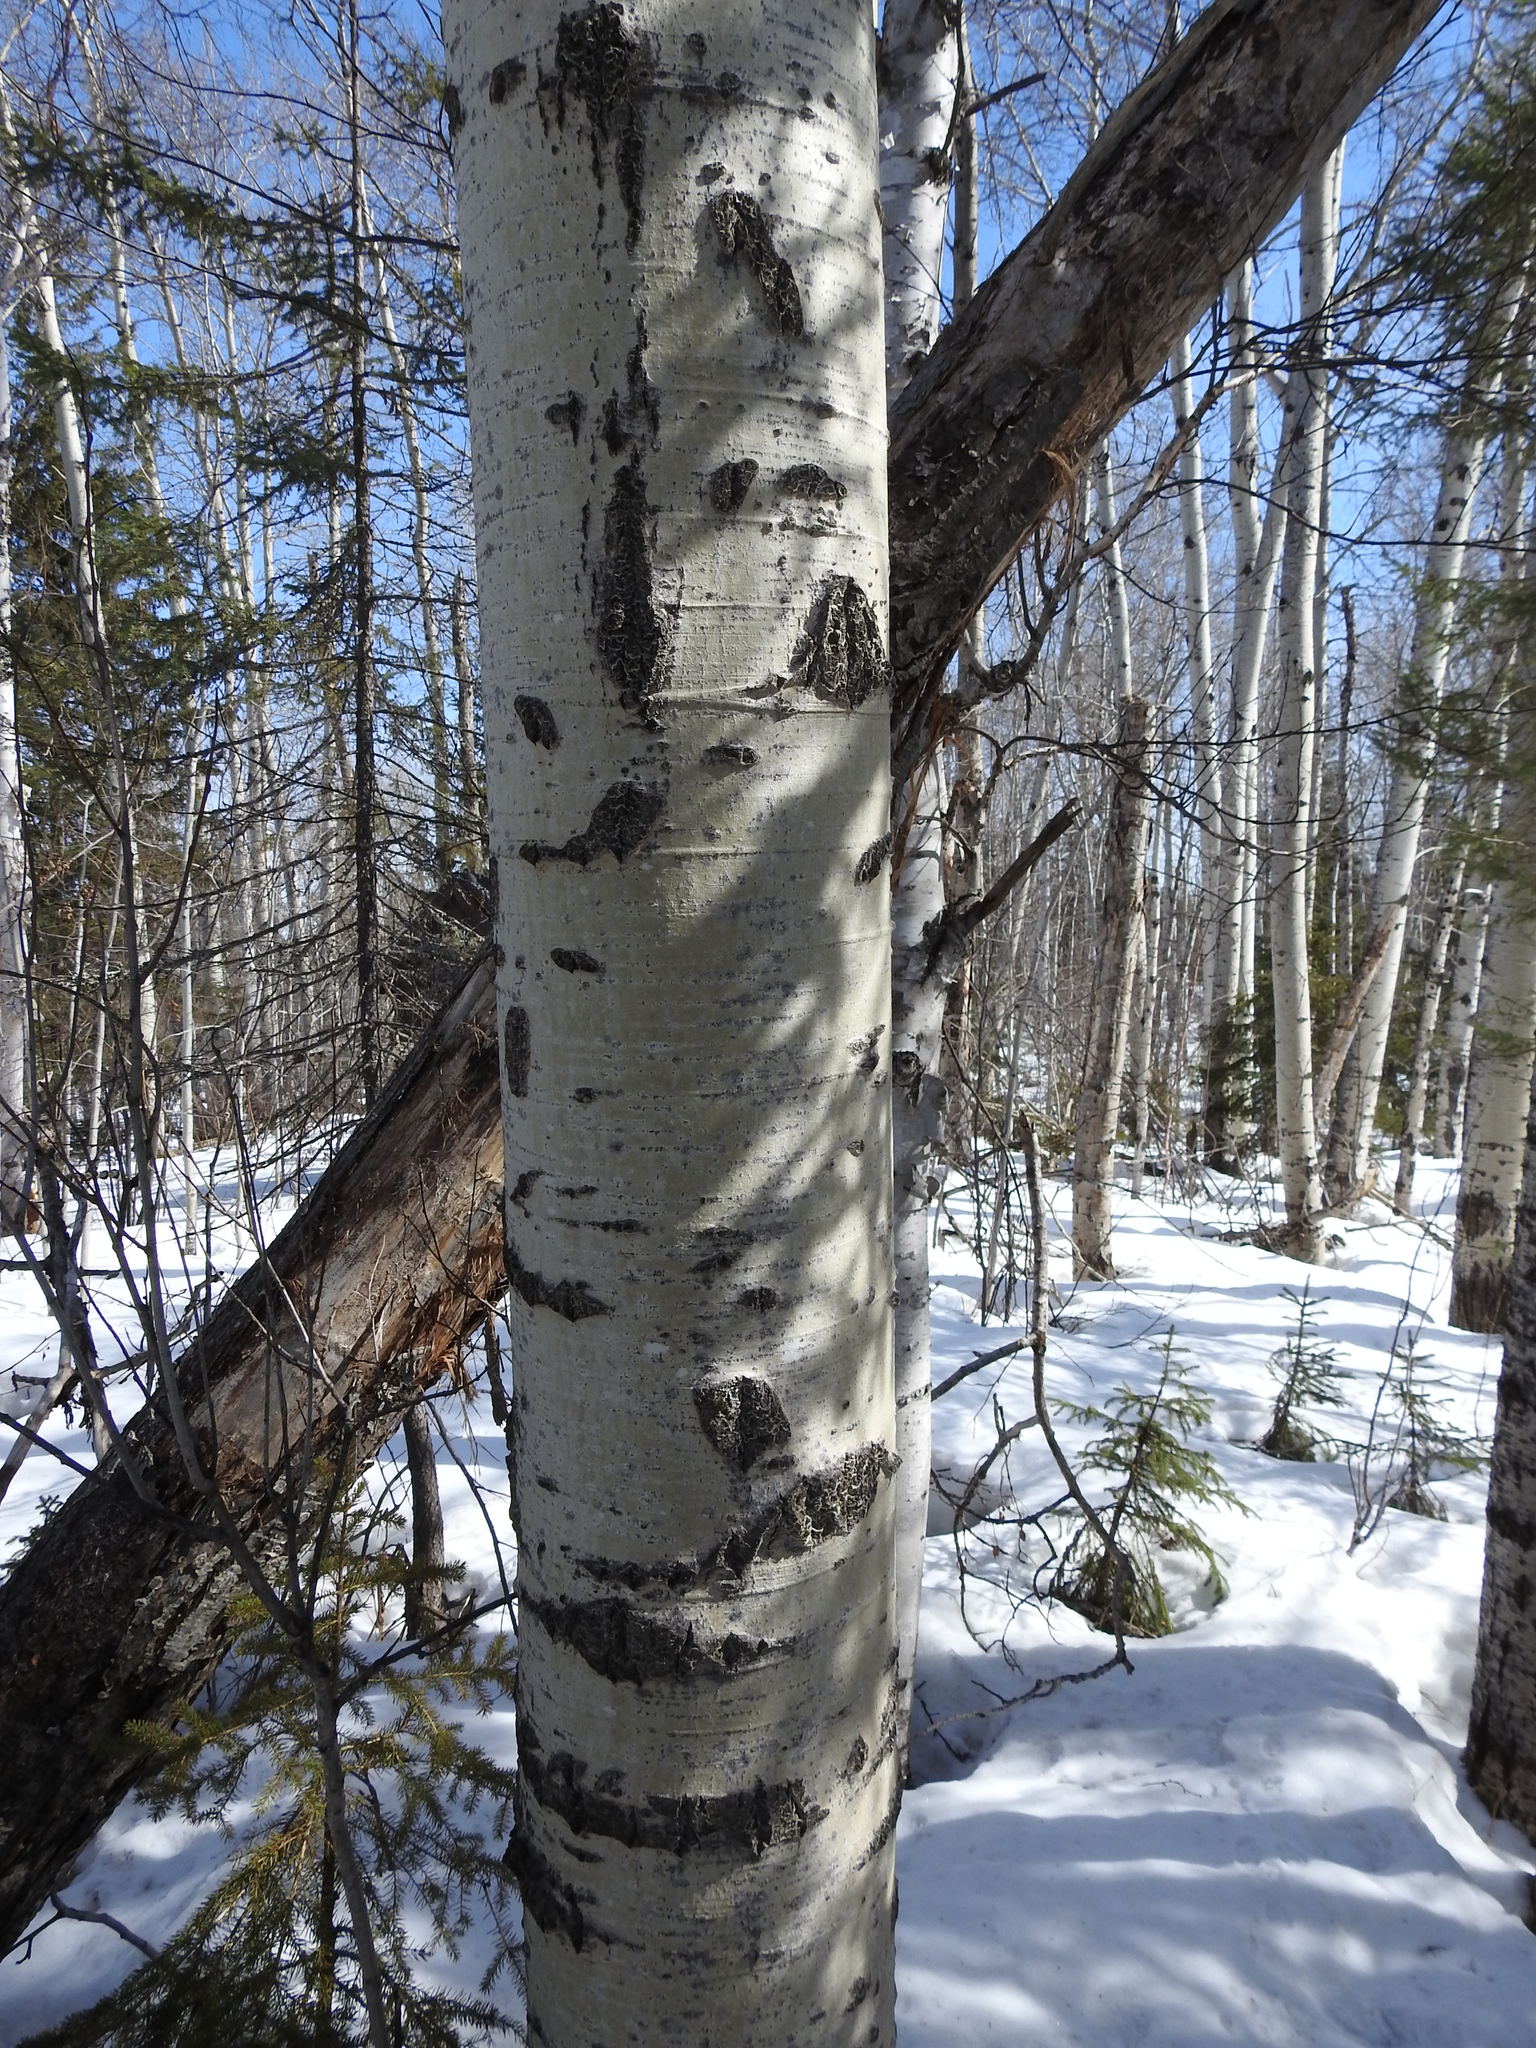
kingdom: Plantae
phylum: Tracheophyta
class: Magnoliopsida
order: Malpighiales
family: Salicaceae
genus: Populus
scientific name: Populus tremuloides
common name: Quaking aspen
